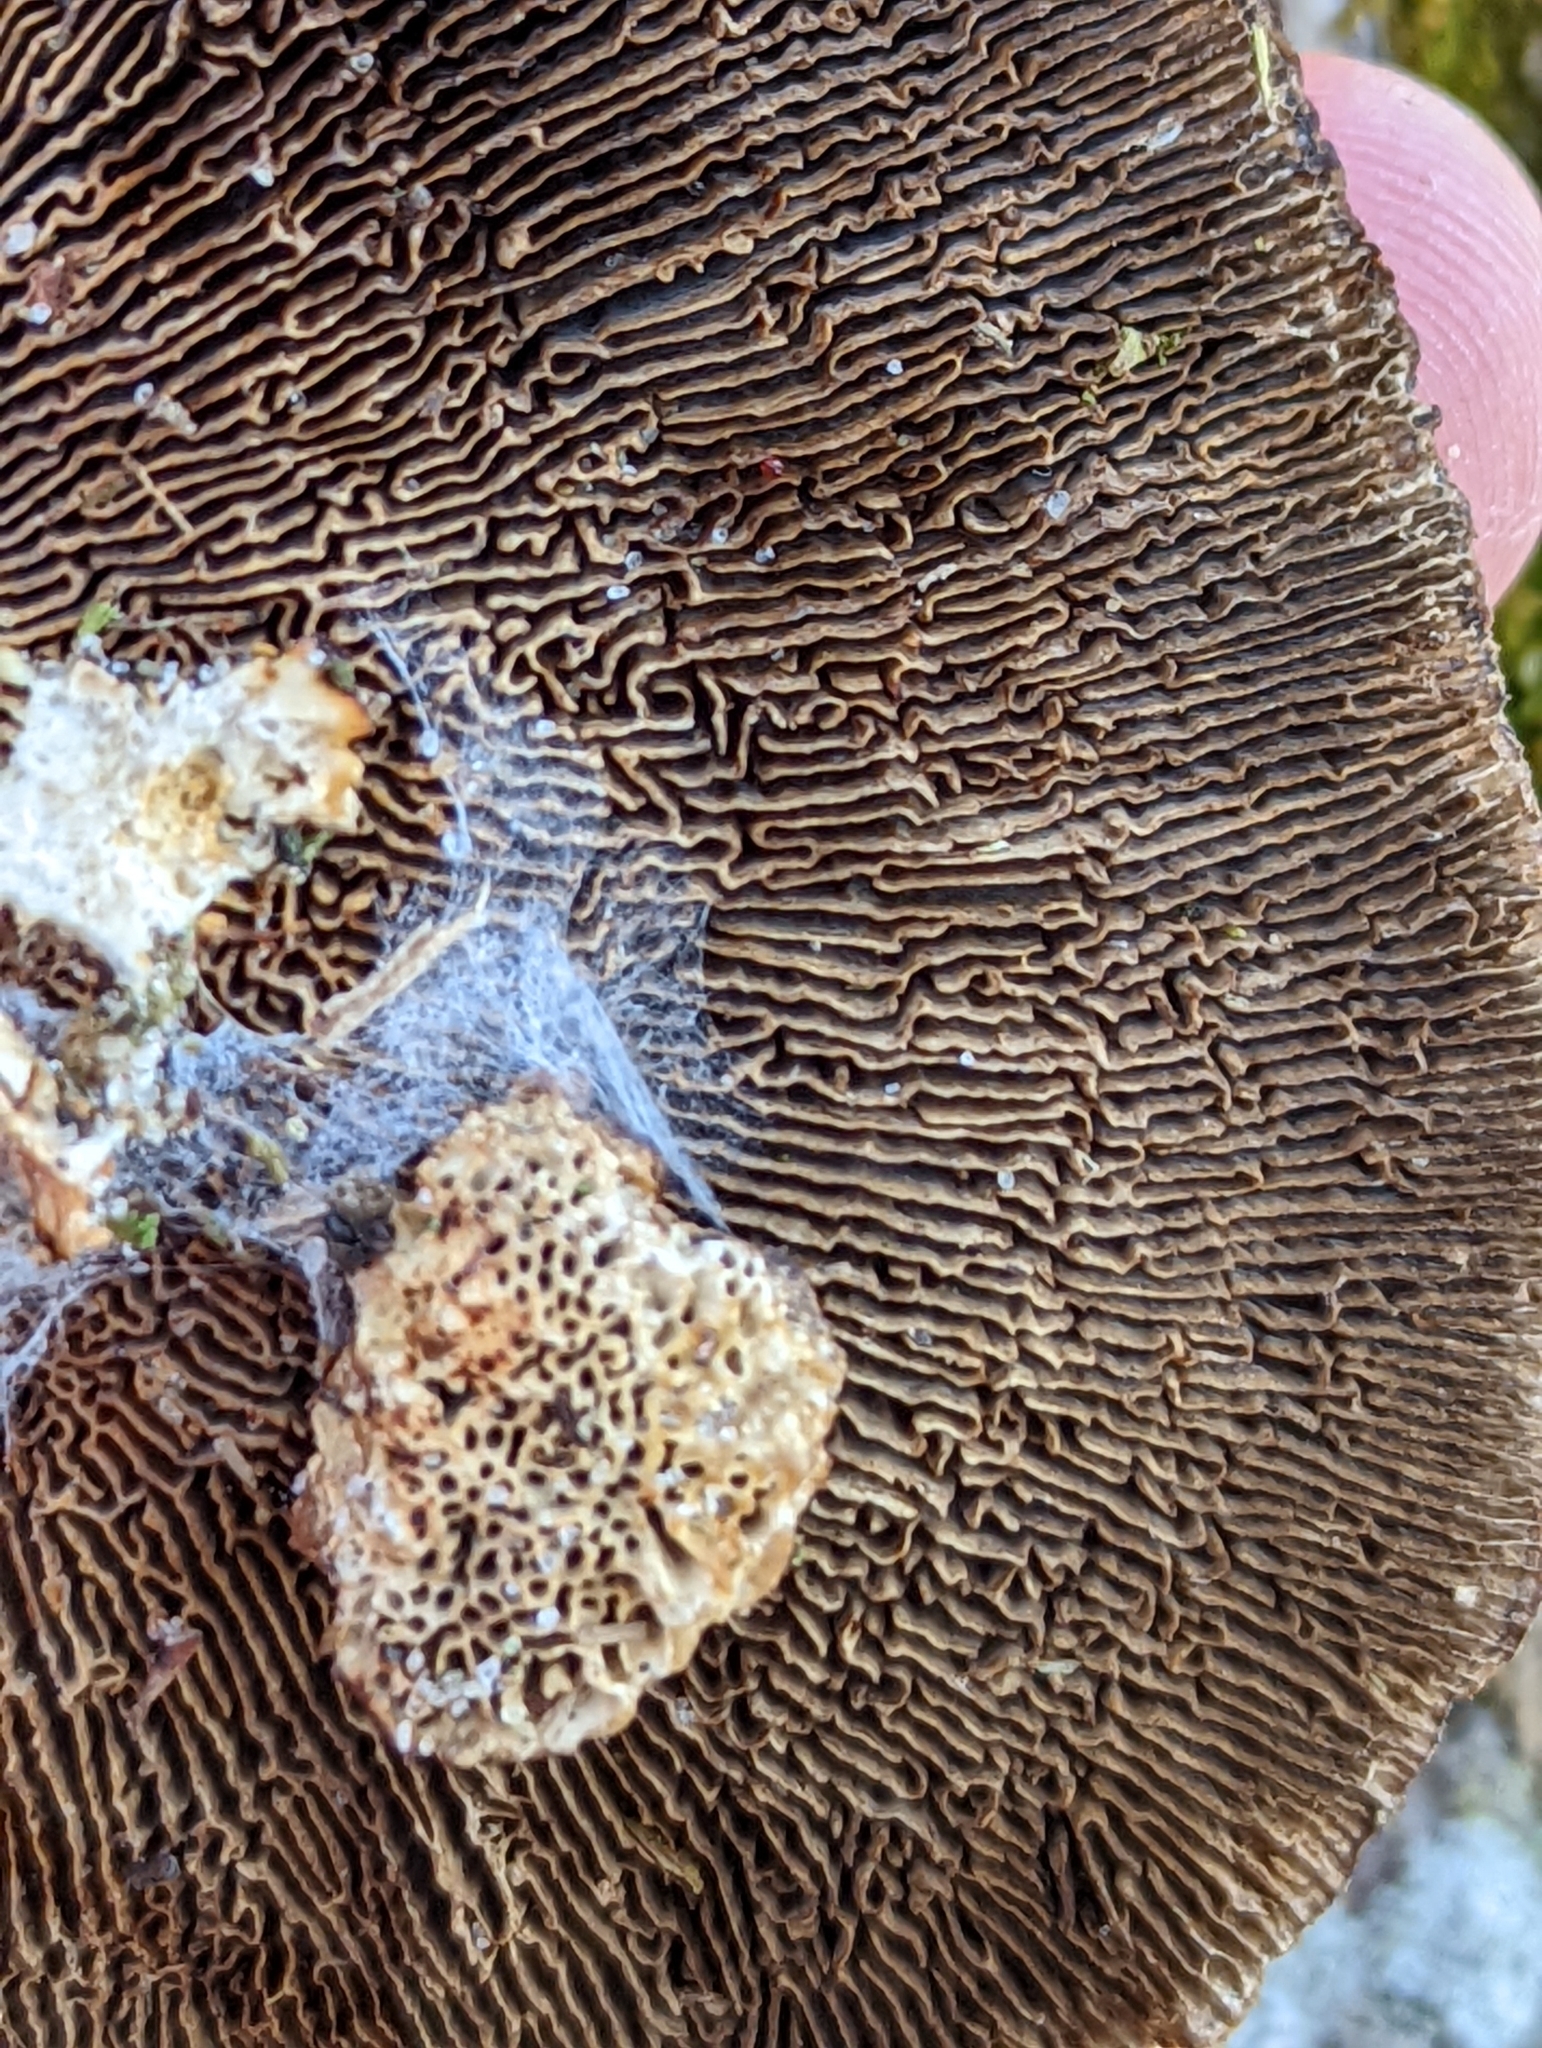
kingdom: Fungi
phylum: Basidiomycota
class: Agaricomycetes
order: Polyporales
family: Polyporaceae
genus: Daedaleopsis
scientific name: Daedaleopsis confragosa
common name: Blushing bracket
